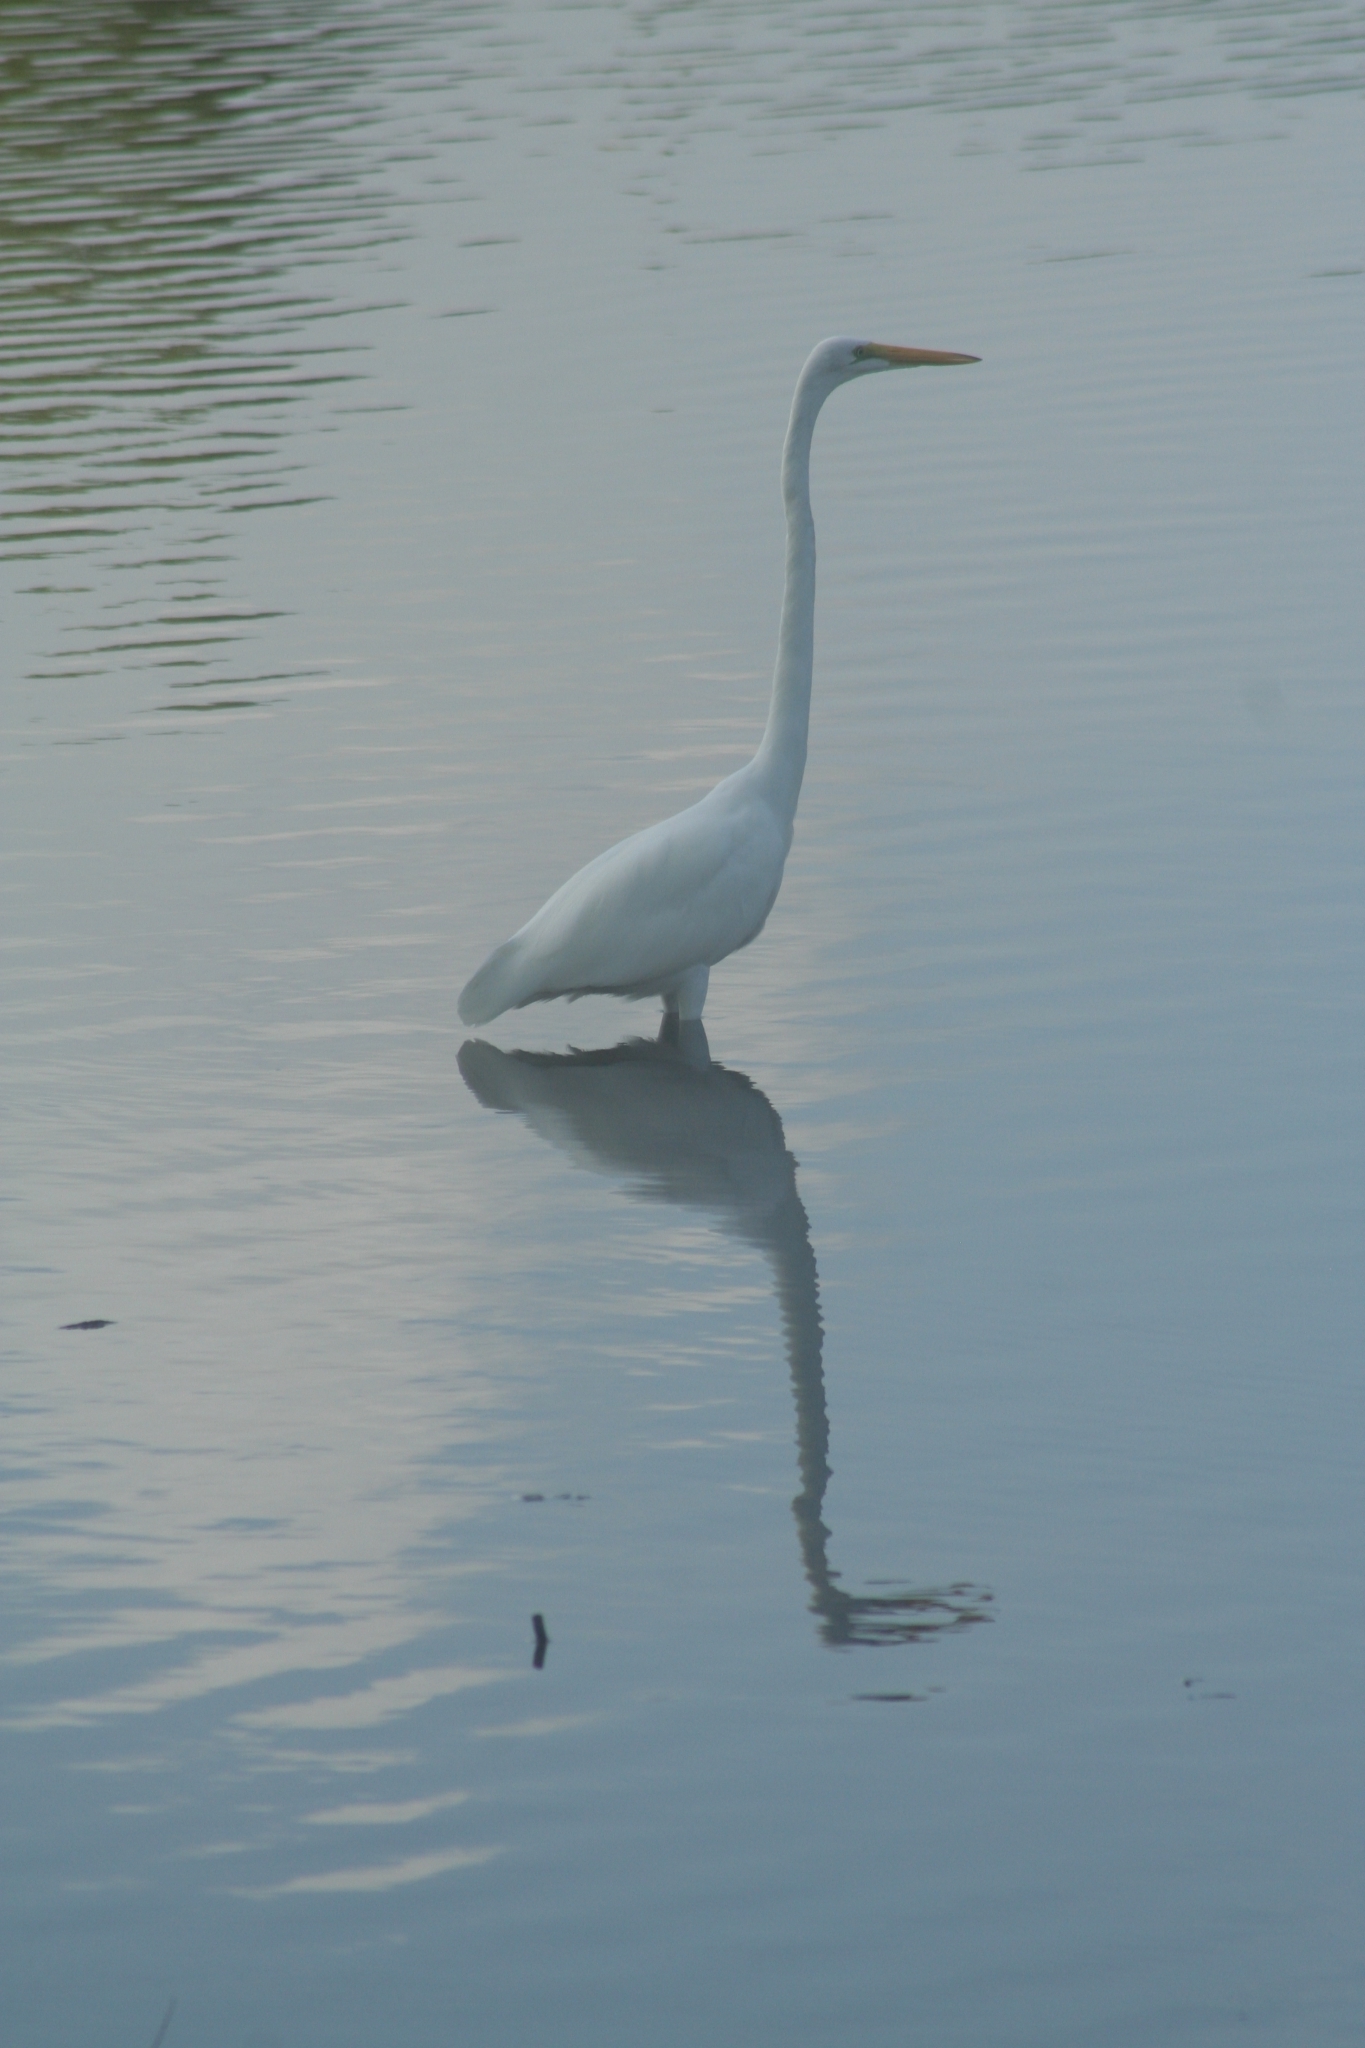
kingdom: Animalia
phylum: Chordata
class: Aves
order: Pelecaniformes
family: Ardeidae
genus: Ardea
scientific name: Ardea alba
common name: Great egret
